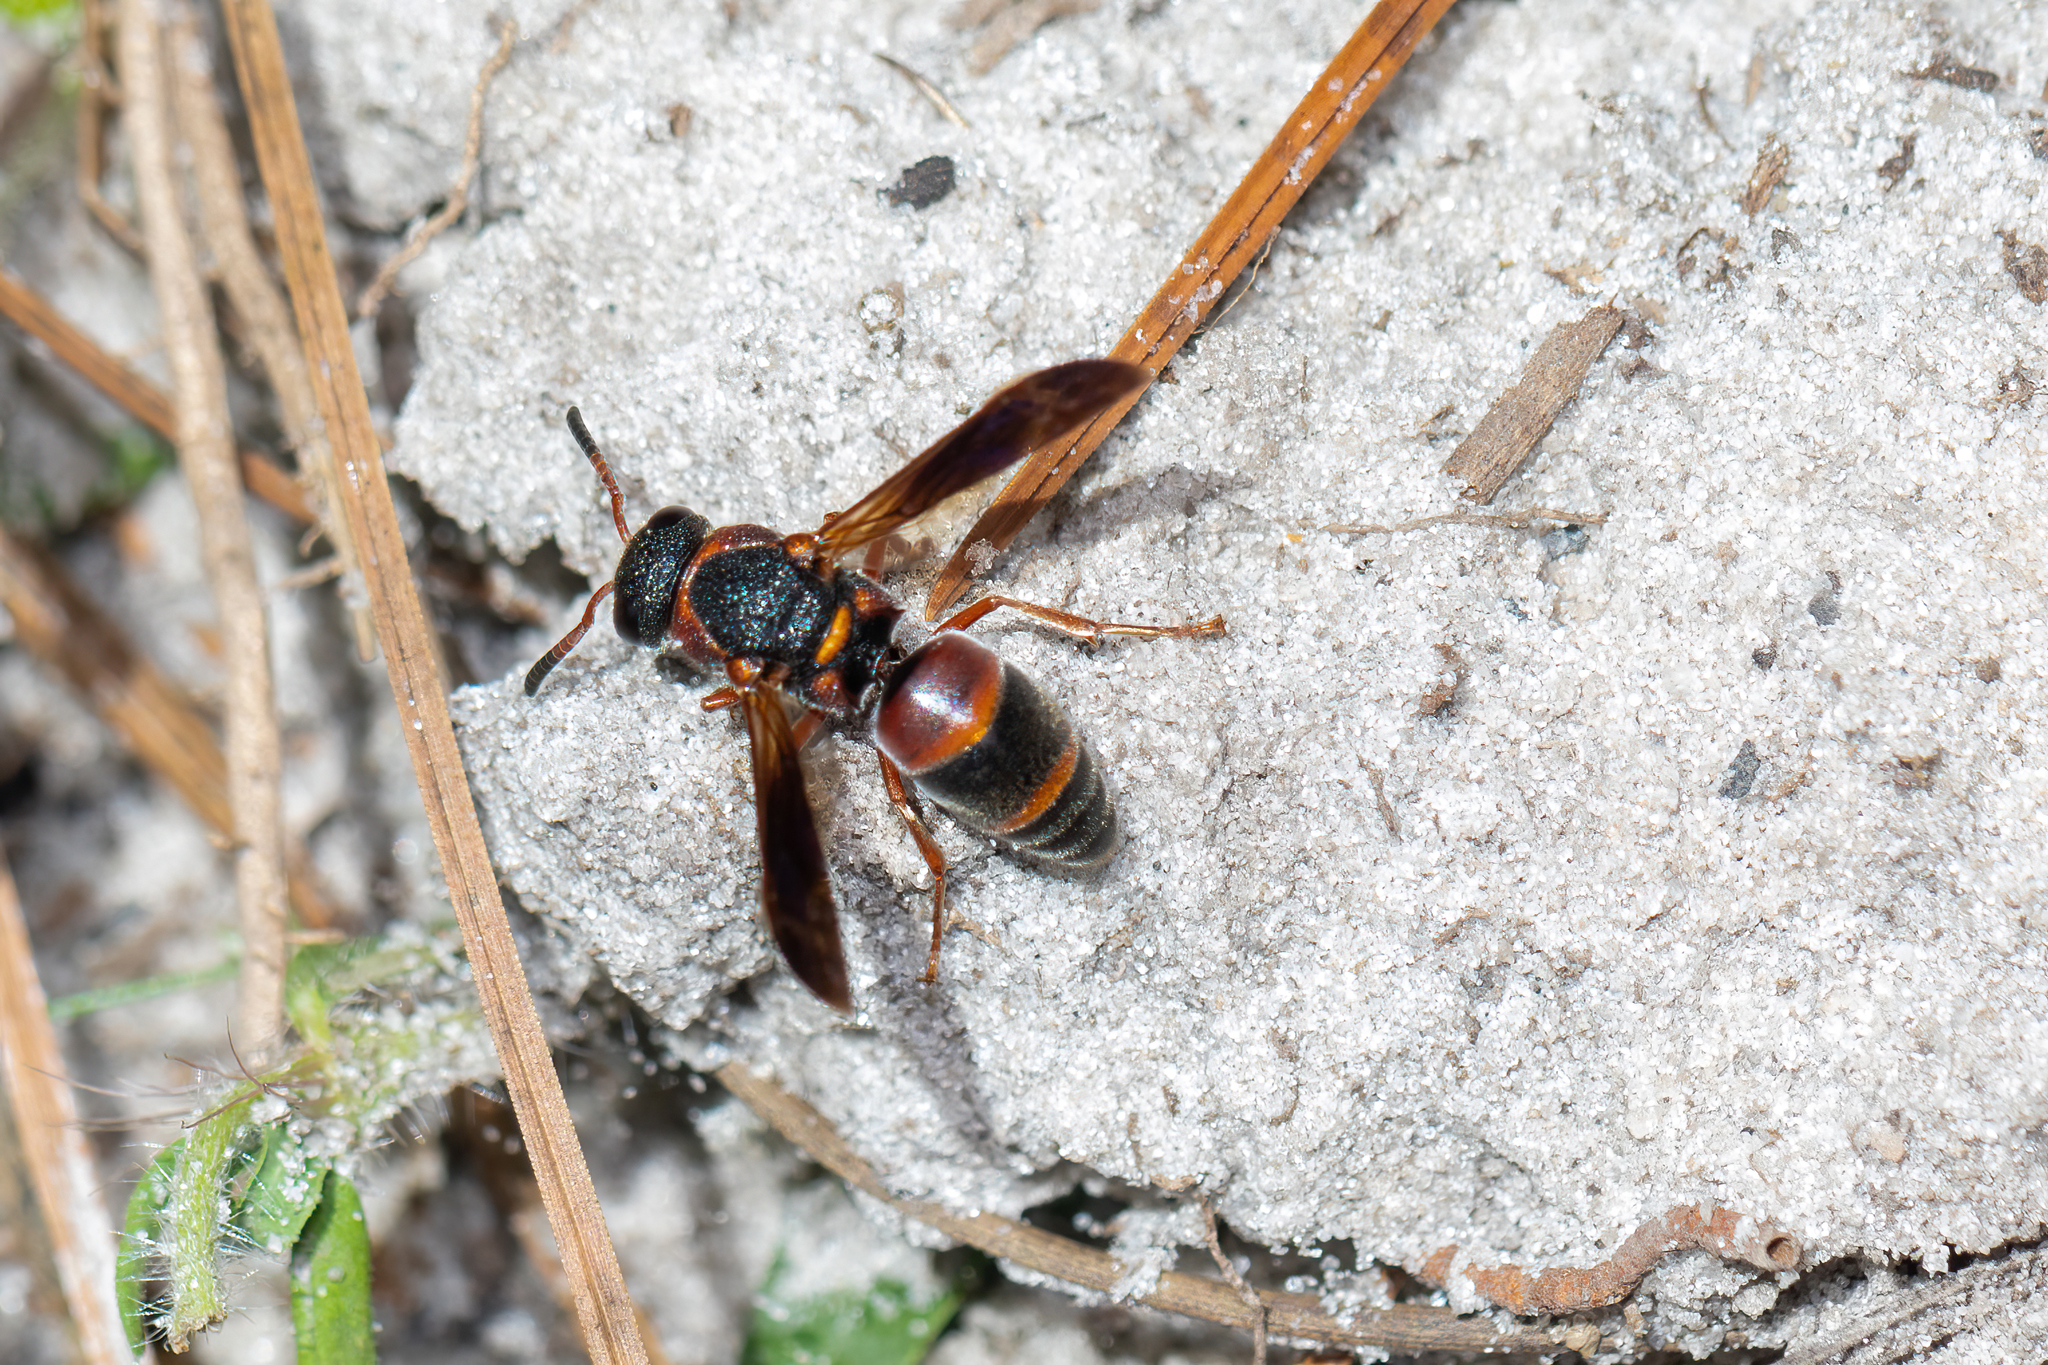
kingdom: Animalia
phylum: Arthropoda
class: Insecta
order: Hymenoptera
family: Eumenidae
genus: Pachodynerus
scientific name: Pachodynerus erynnis
